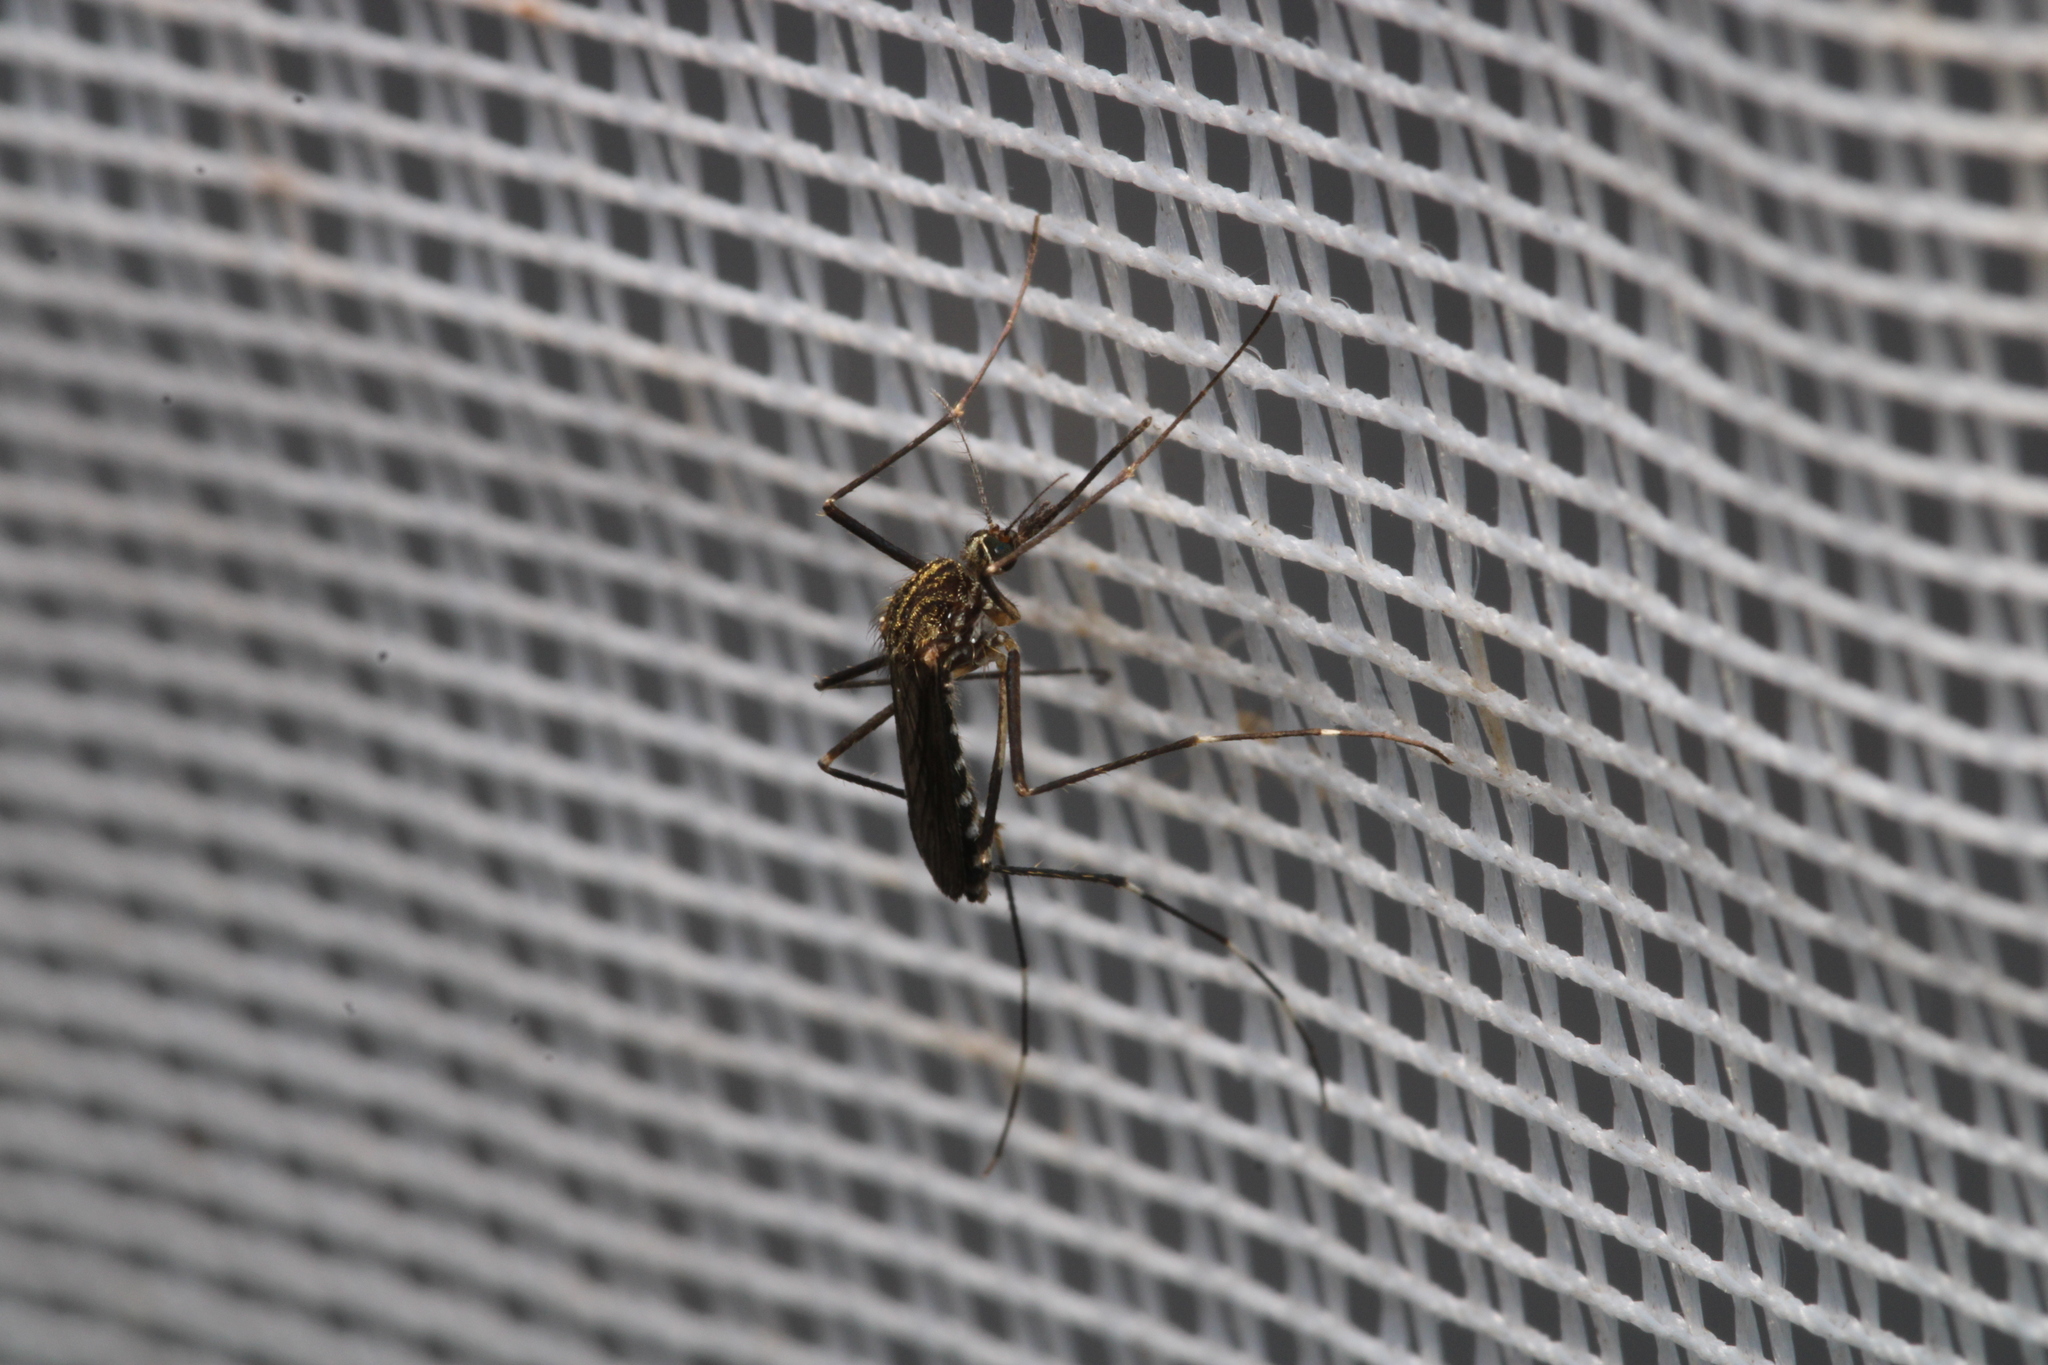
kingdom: Animalia
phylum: Arthropoda
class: Insecta
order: Diptera
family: Culicidae
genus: Aedes
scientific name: Aedes japonicus
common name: Asian bush mosquito
